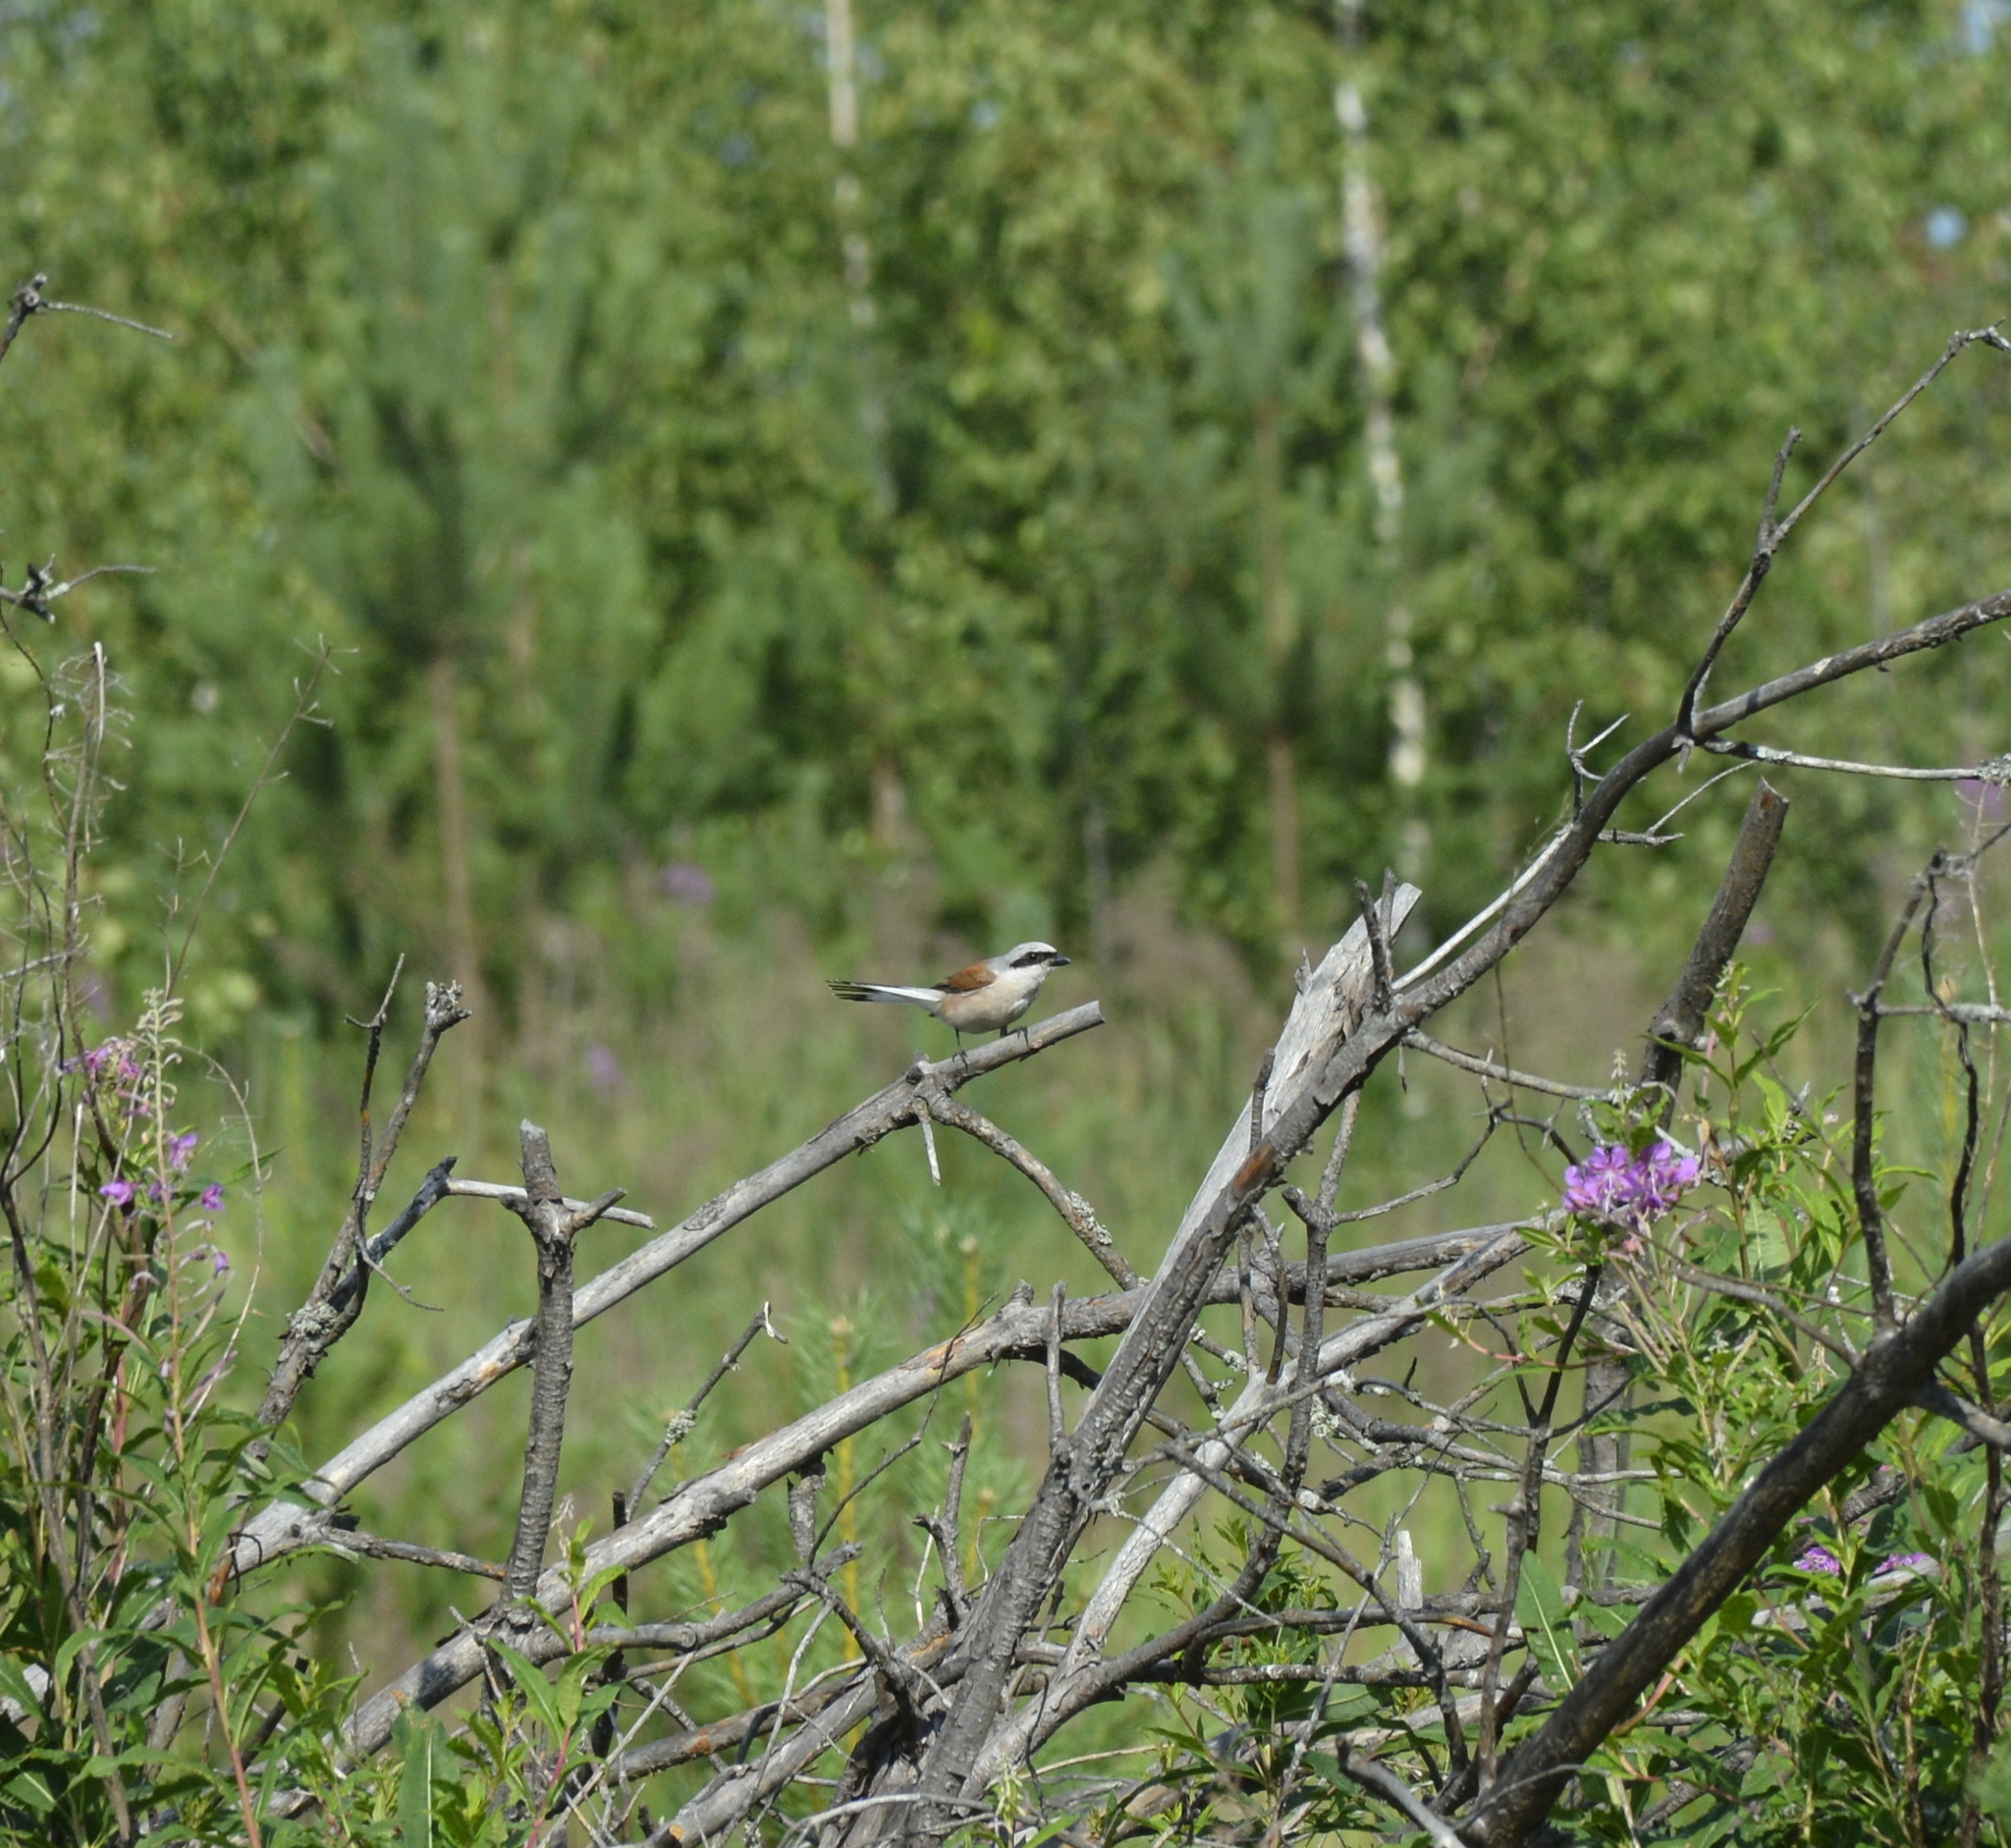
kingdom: Animalia
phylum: Chordata
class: Aves
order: Passeriformes
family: Laniidae
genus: Lanius
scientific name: Lanius collurio
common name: Red-backed shrike
